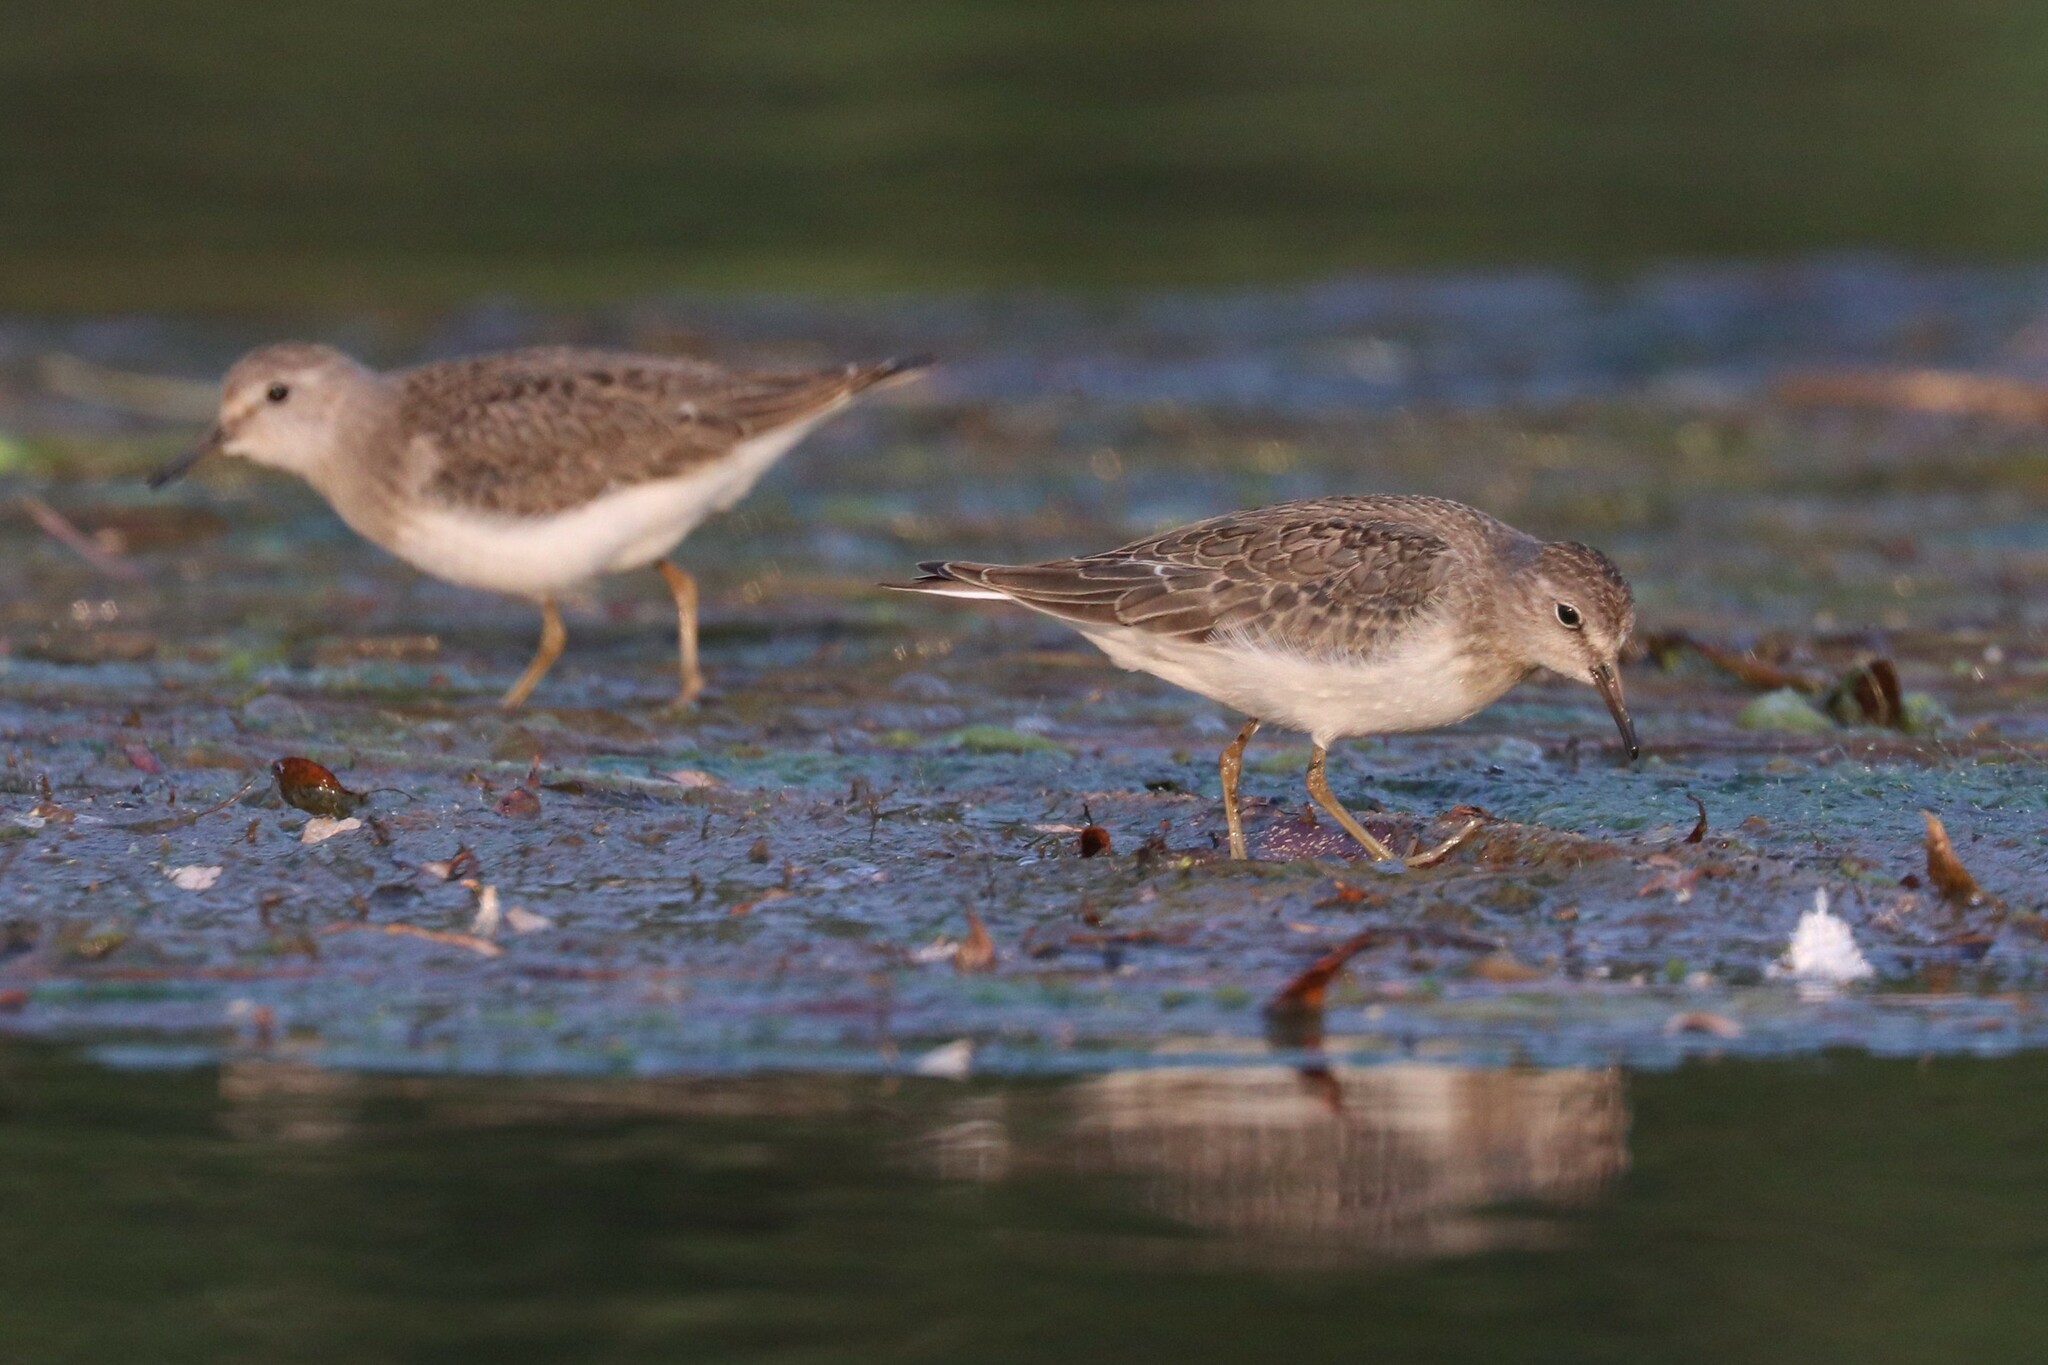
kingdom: Animalia
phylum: Chordata
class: Aves
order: Charadriiformes
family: Scolopacidae
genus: Calidris
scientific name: Calidris temminckii
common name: Temminck's stint
